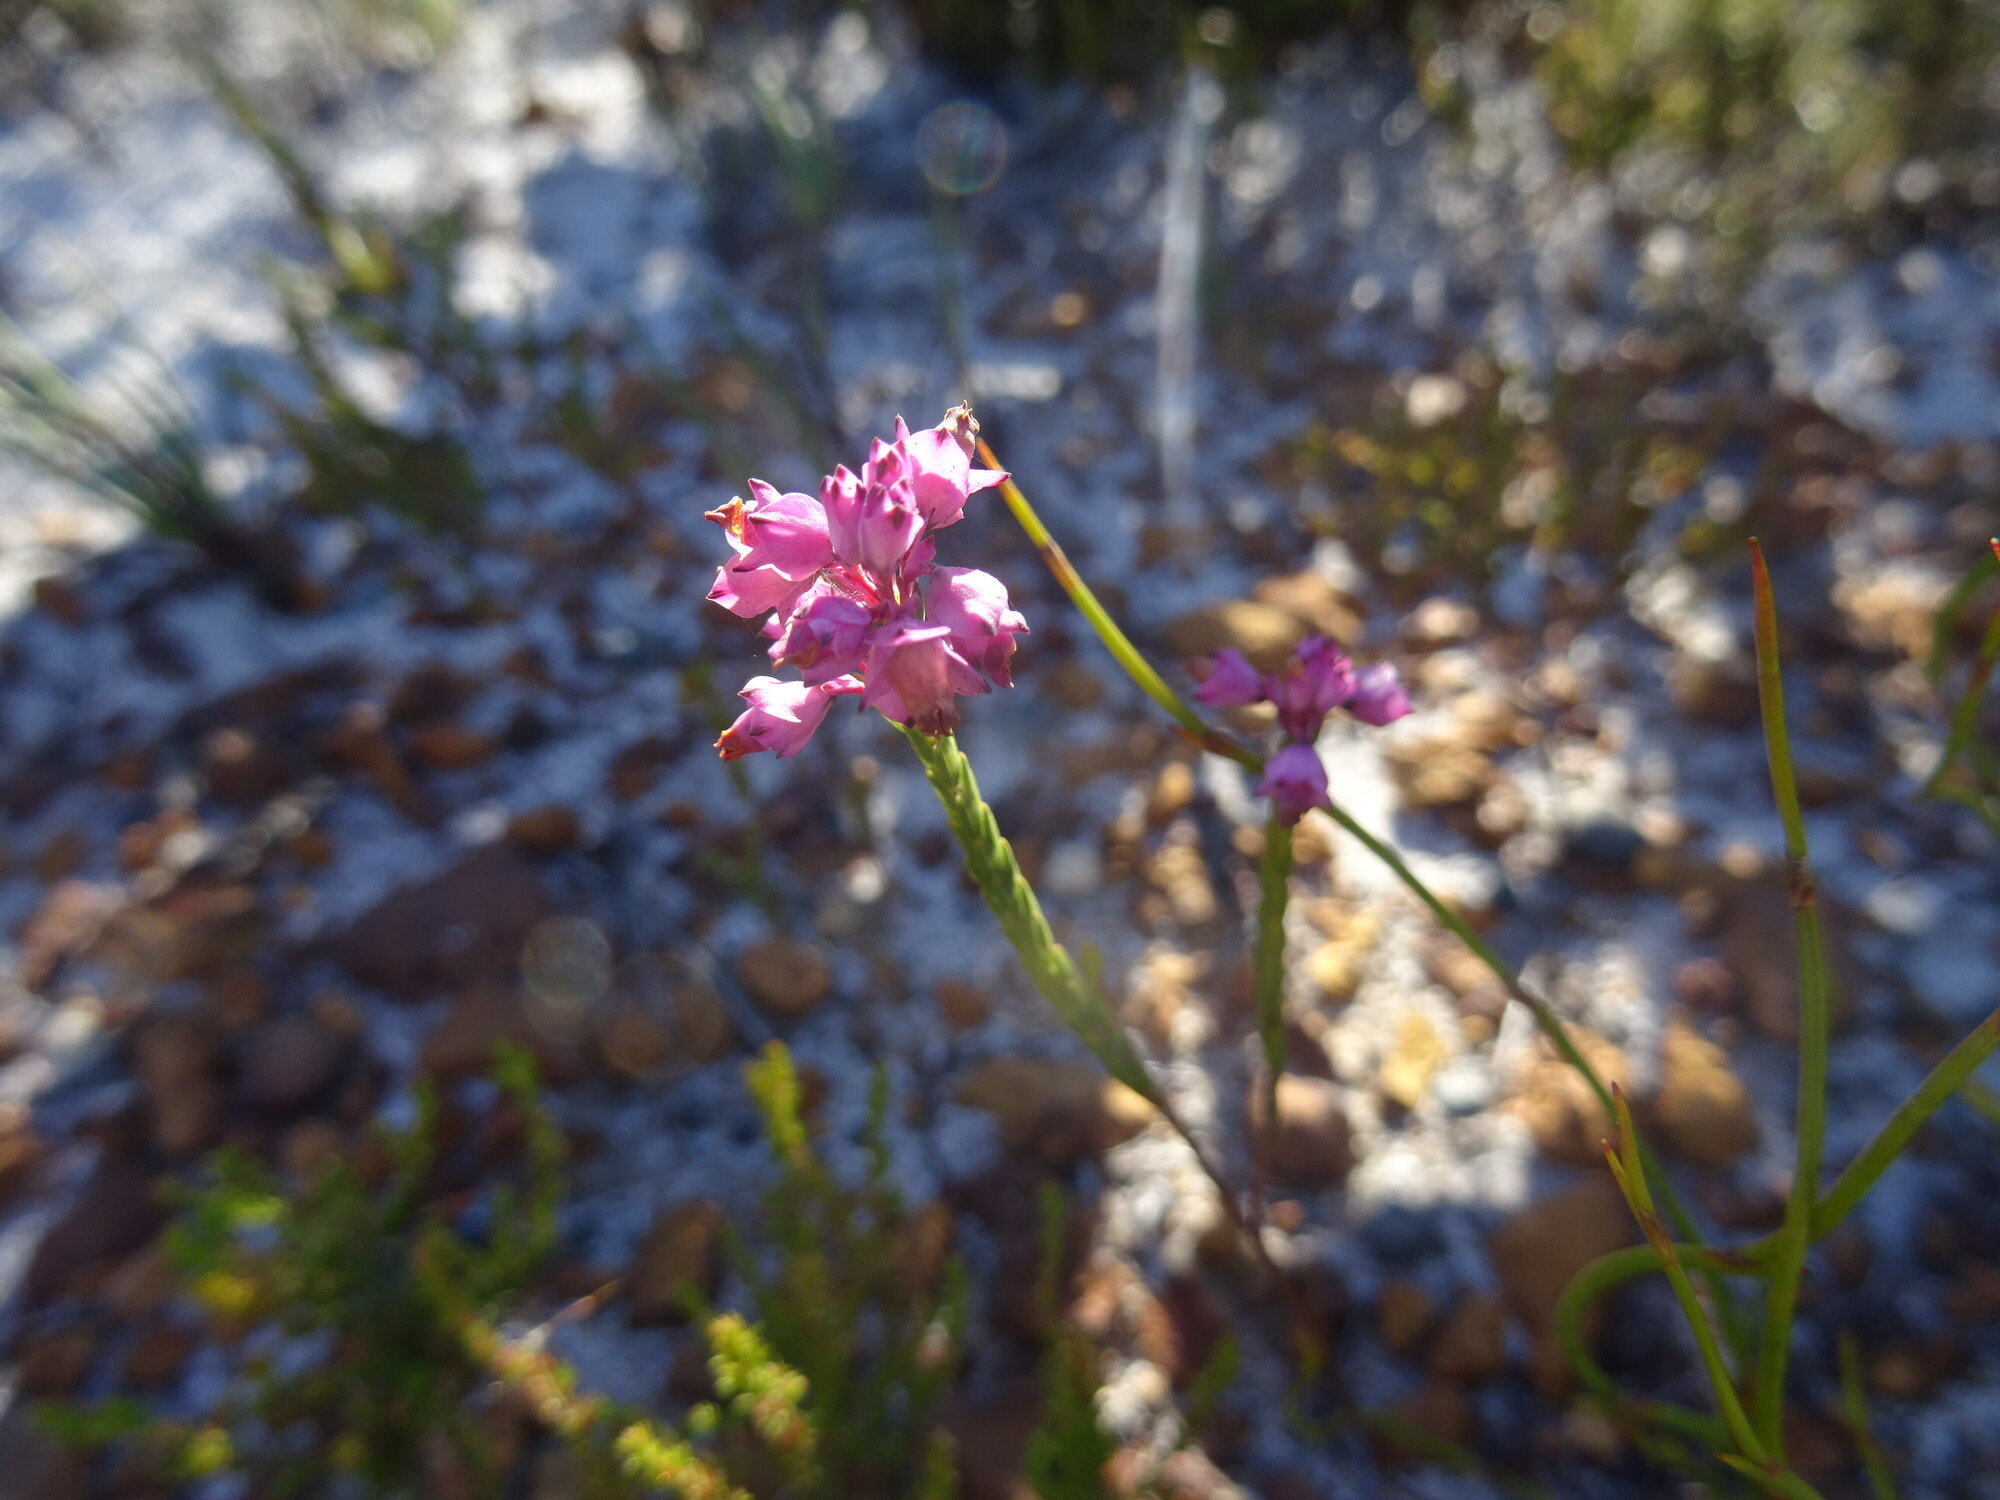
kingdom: Plantae
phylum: Tracheophyta
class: Magnoliopsida
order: Ericales
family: Ericaceae
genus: Erica
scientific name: Erica corifolia
